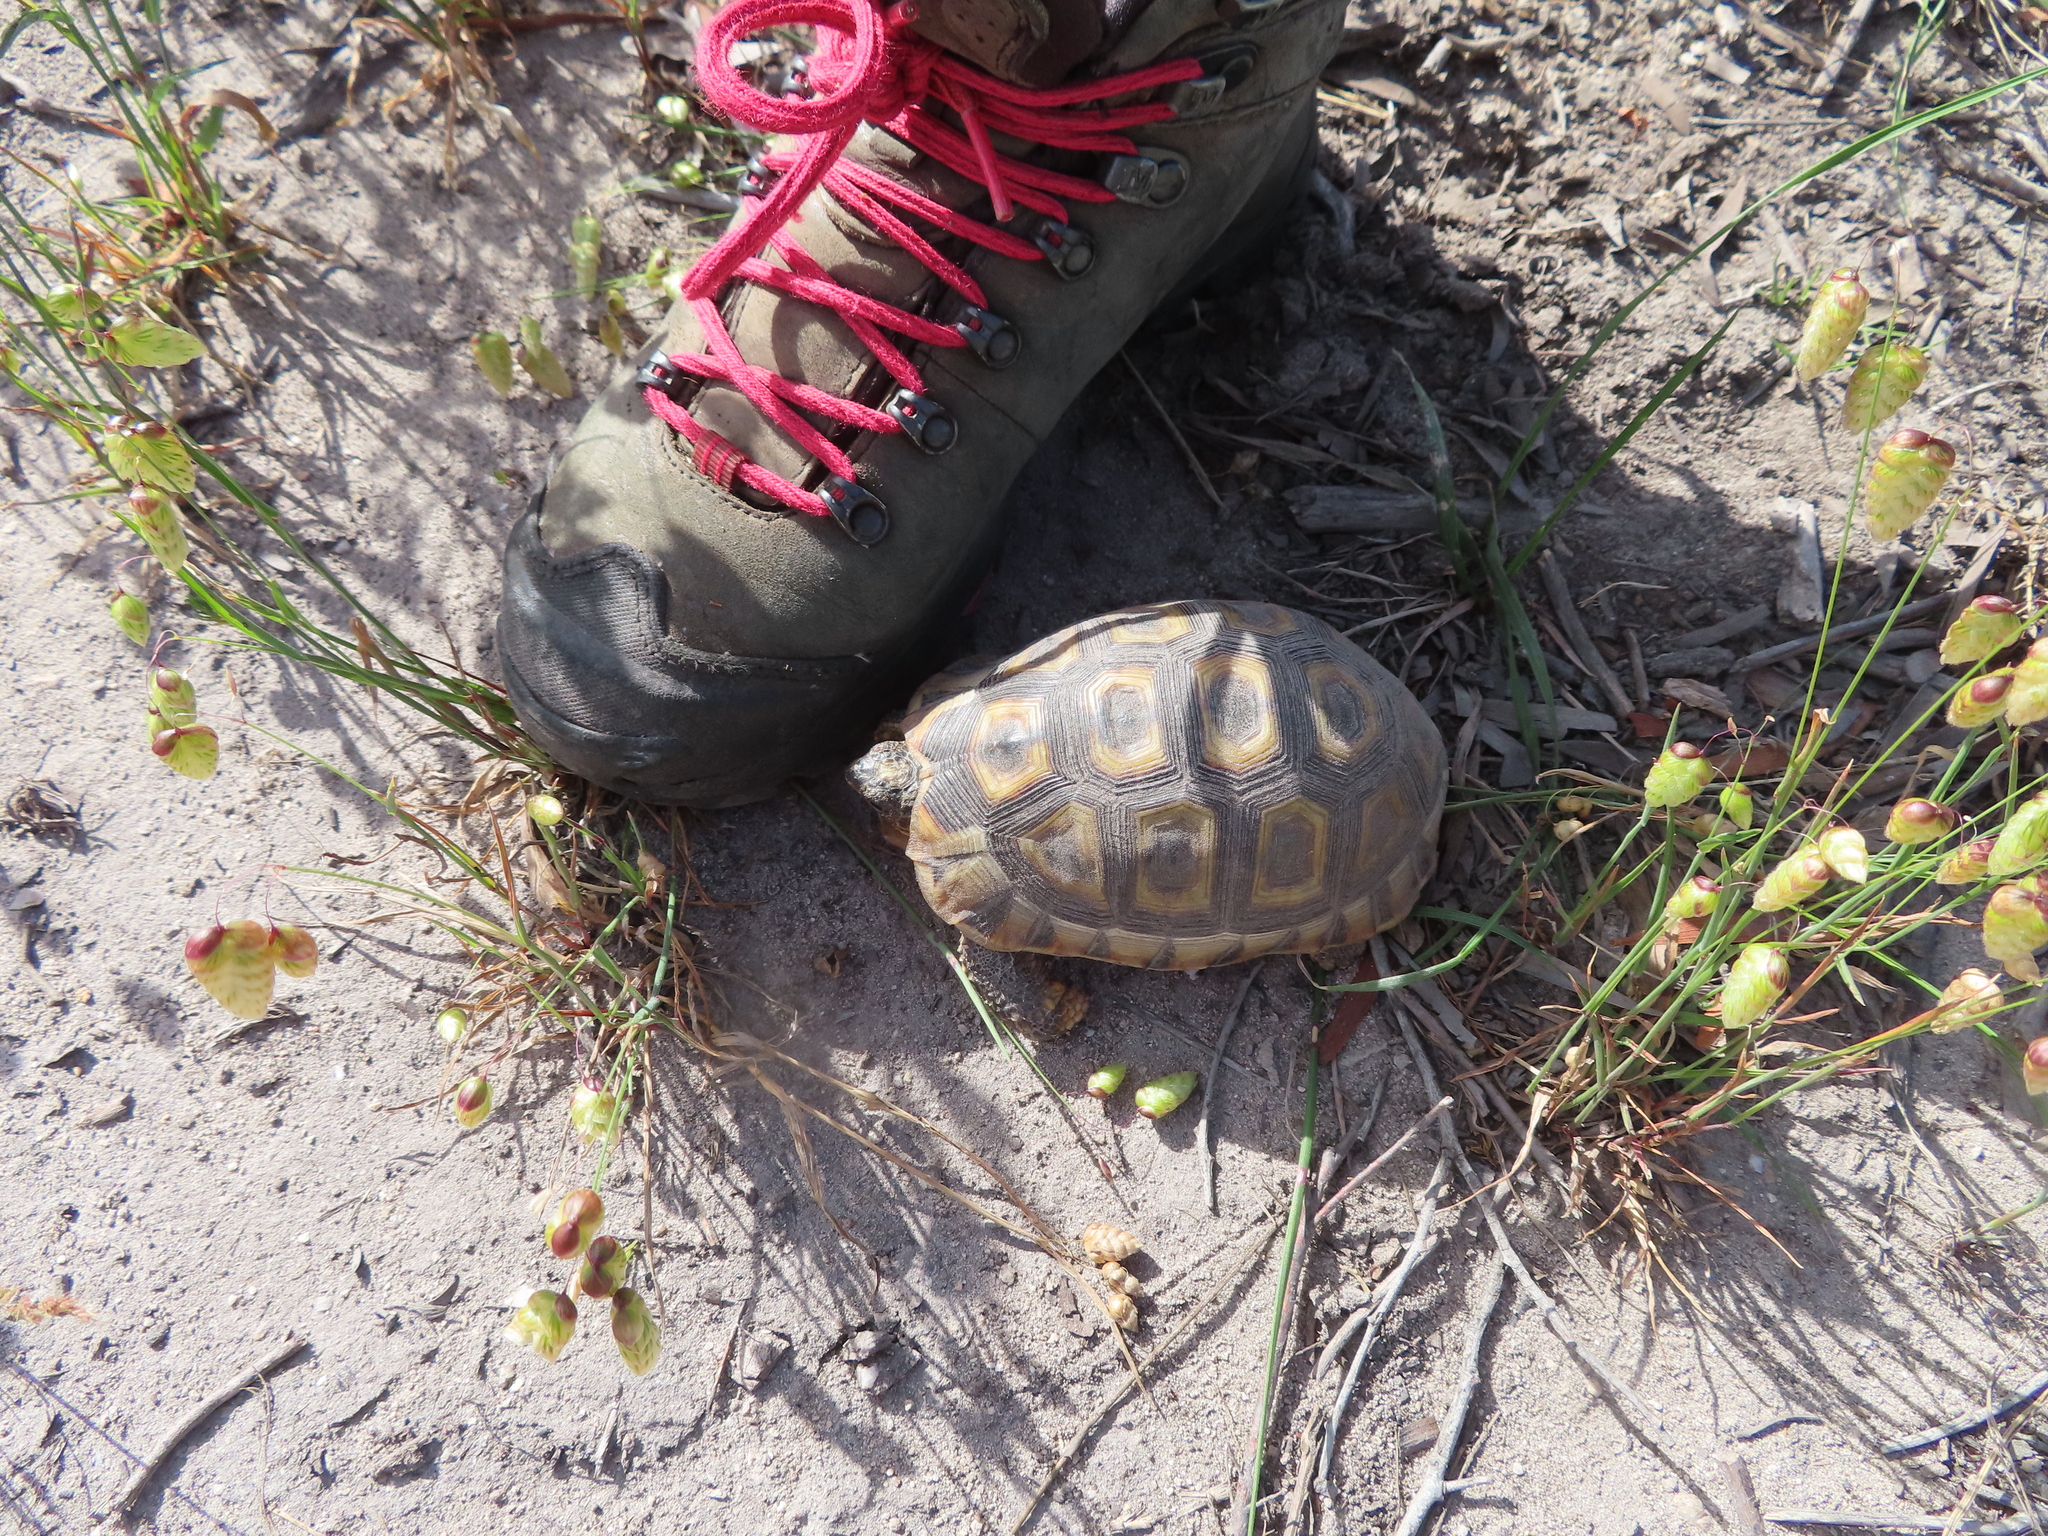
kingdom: Animalia
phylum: Chordata
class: Testudines
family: Testudinidae
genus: Chersina
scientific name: Chersina angulata
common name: South african bowsprit tortoise
